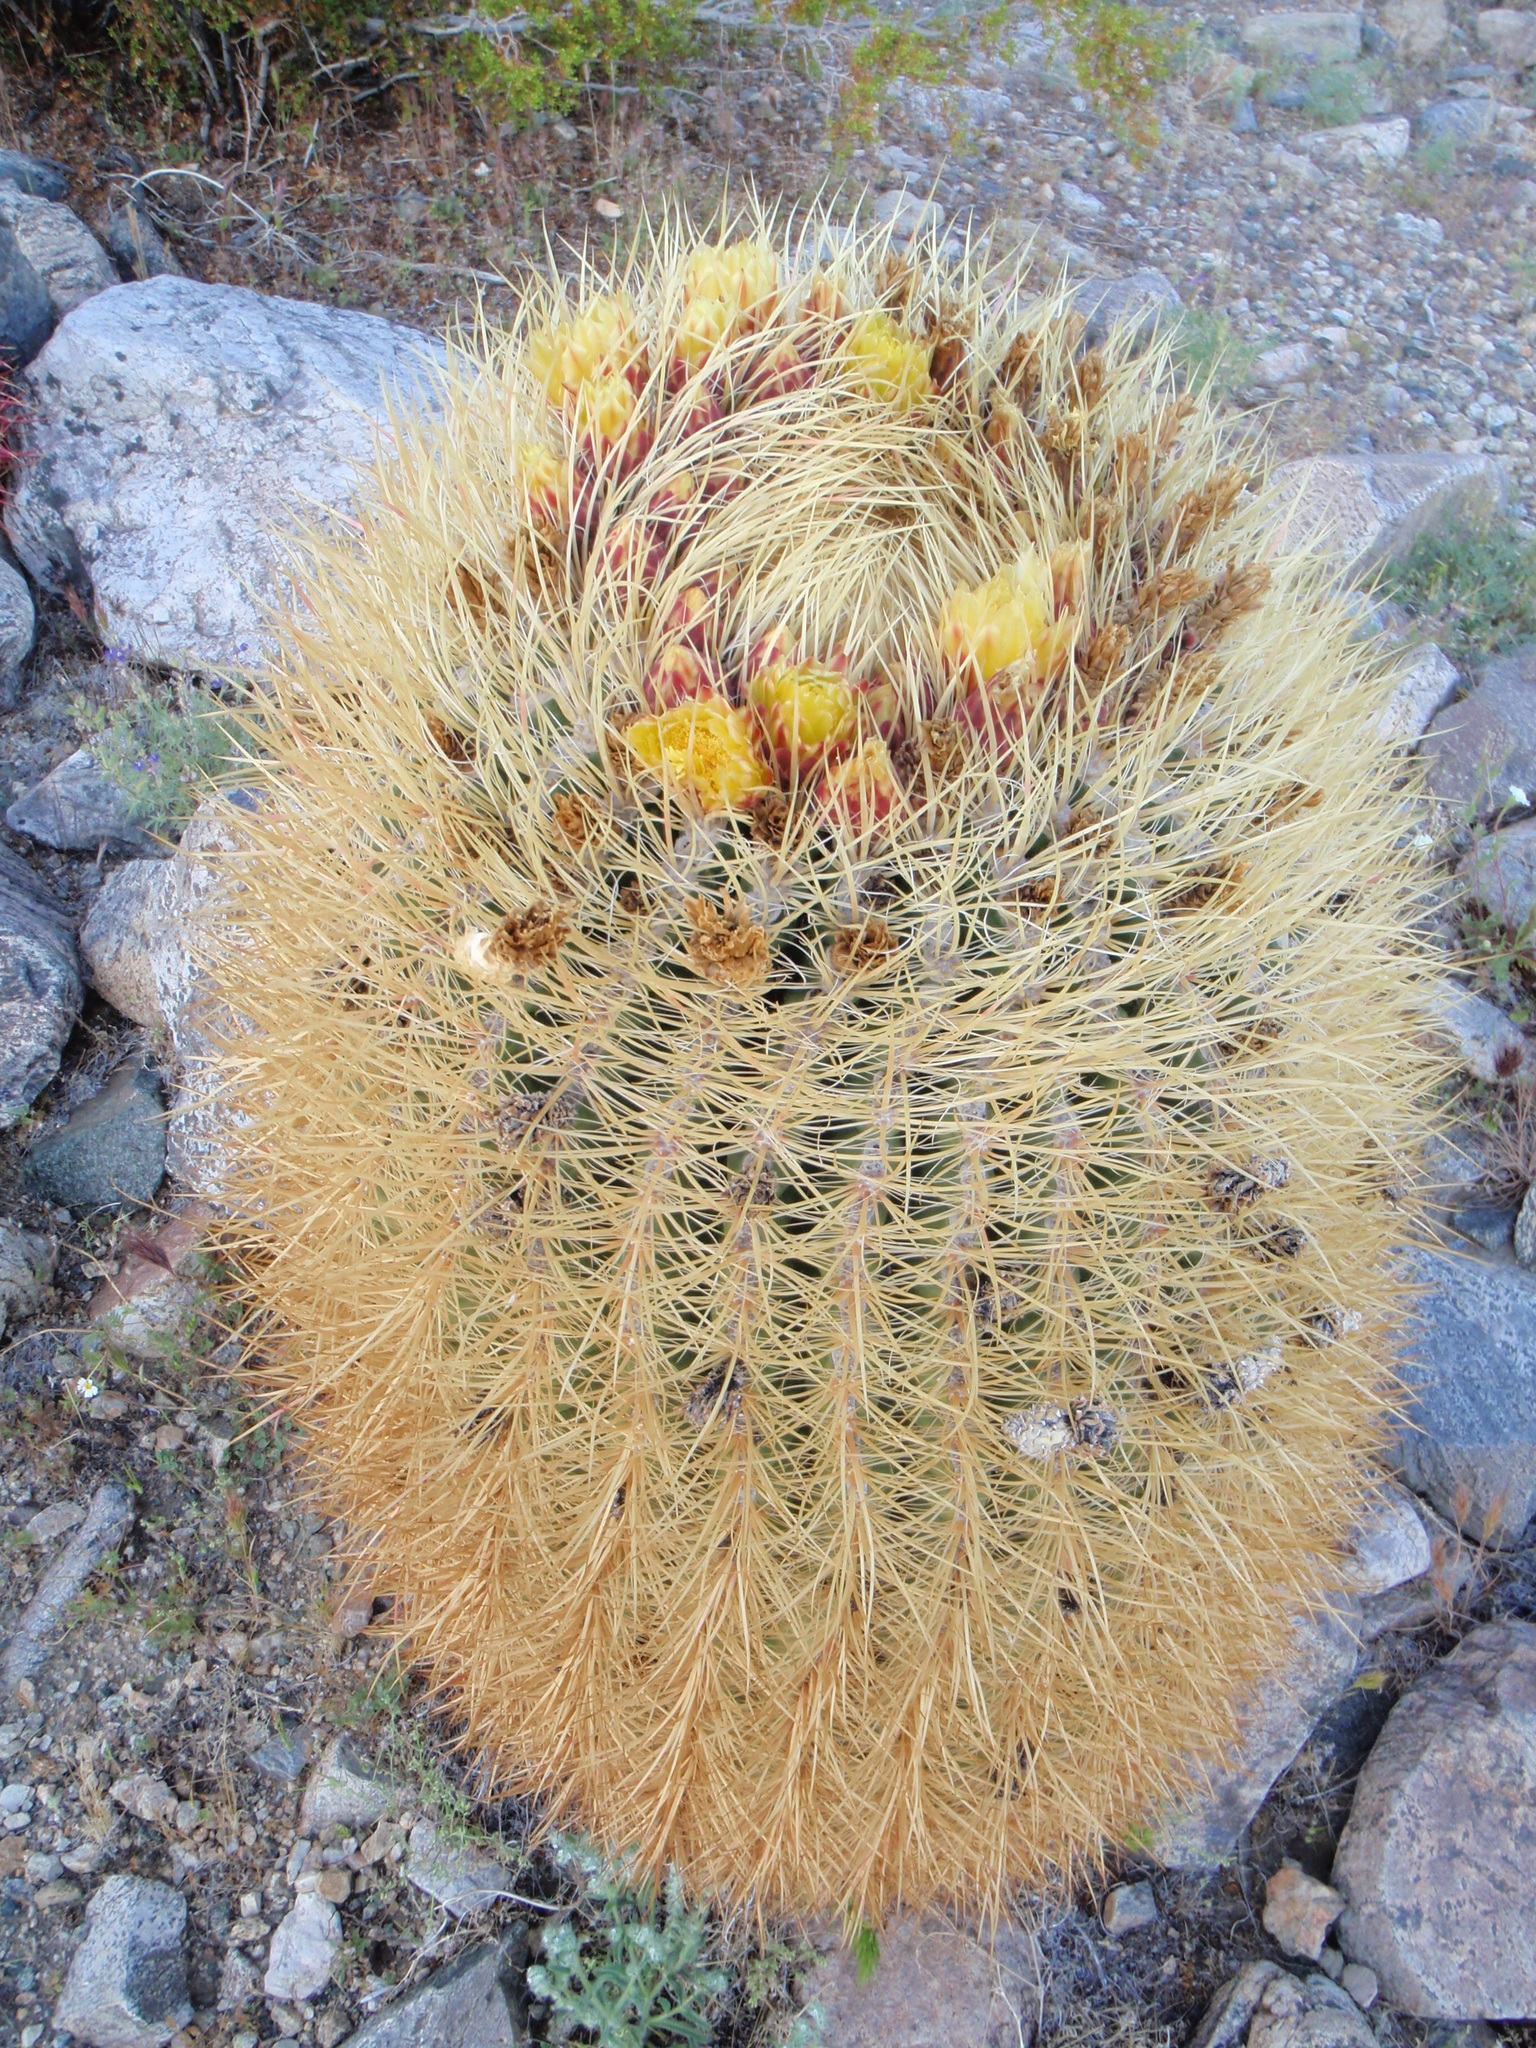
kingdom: Plantae
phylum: Tracheophyta
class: Magnoliopsida
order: Caryophyllales
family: Cactaceae
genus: Ferocactus
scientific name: Ferocactus cylindraceus
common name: California barrel cactus
